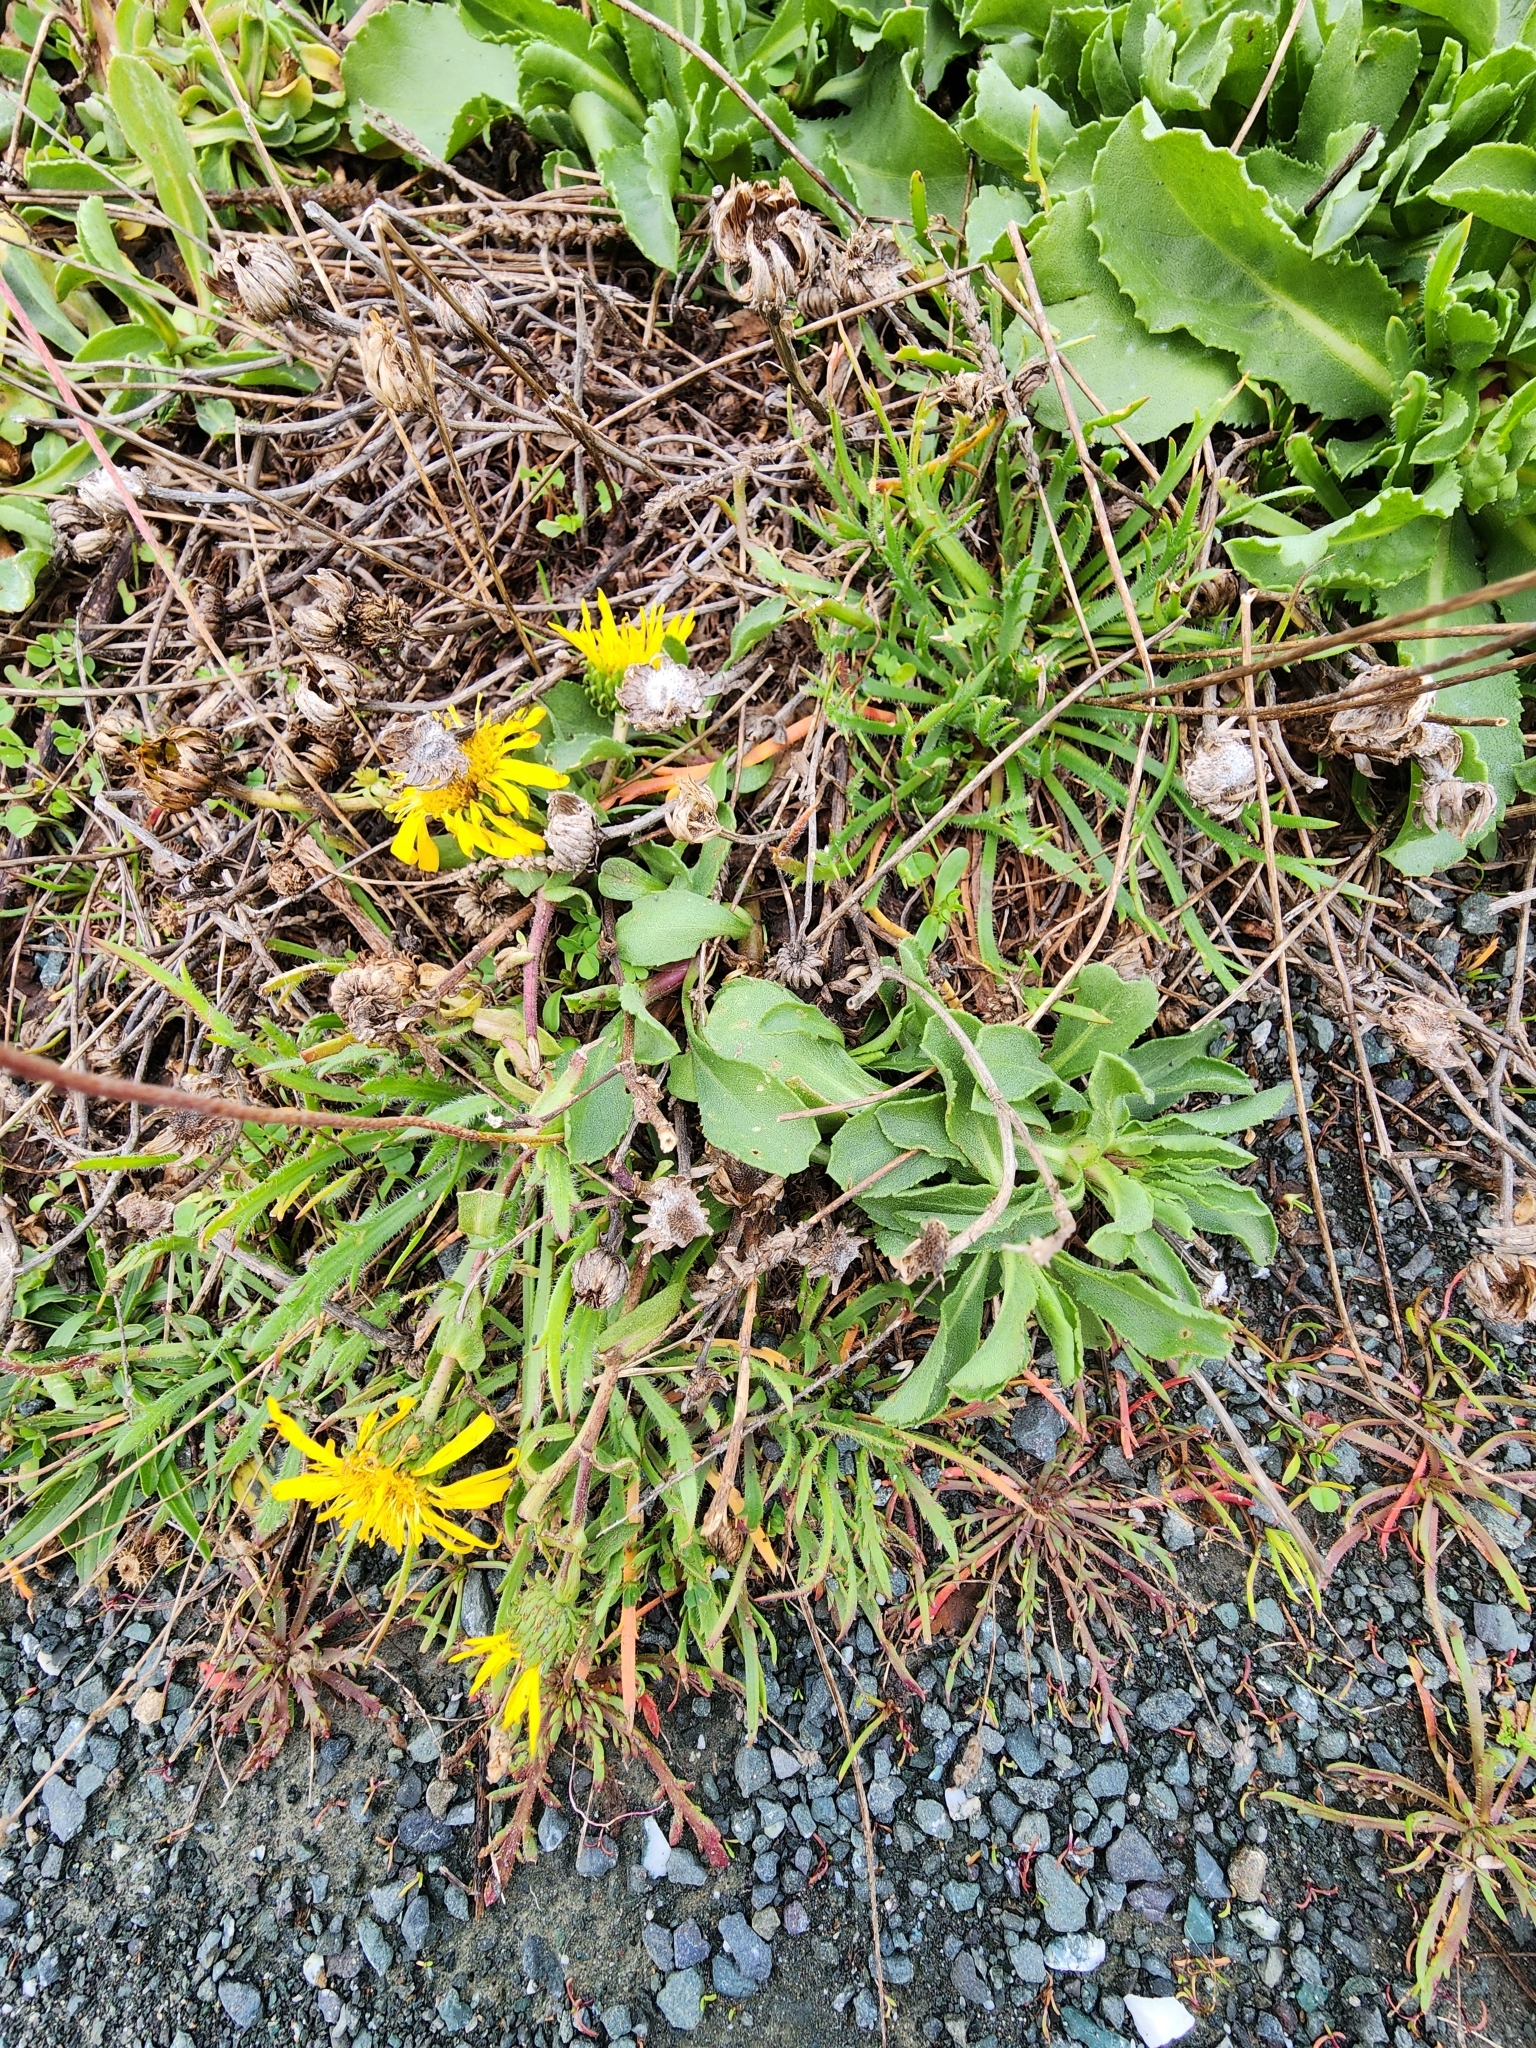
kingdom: Plantae
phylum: Tracheophyta
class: Magnoliopsida
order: Asterales
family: Asteraceae
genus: Grindelia
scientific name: Grindelia hirsutula
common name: Hairy gumweed
